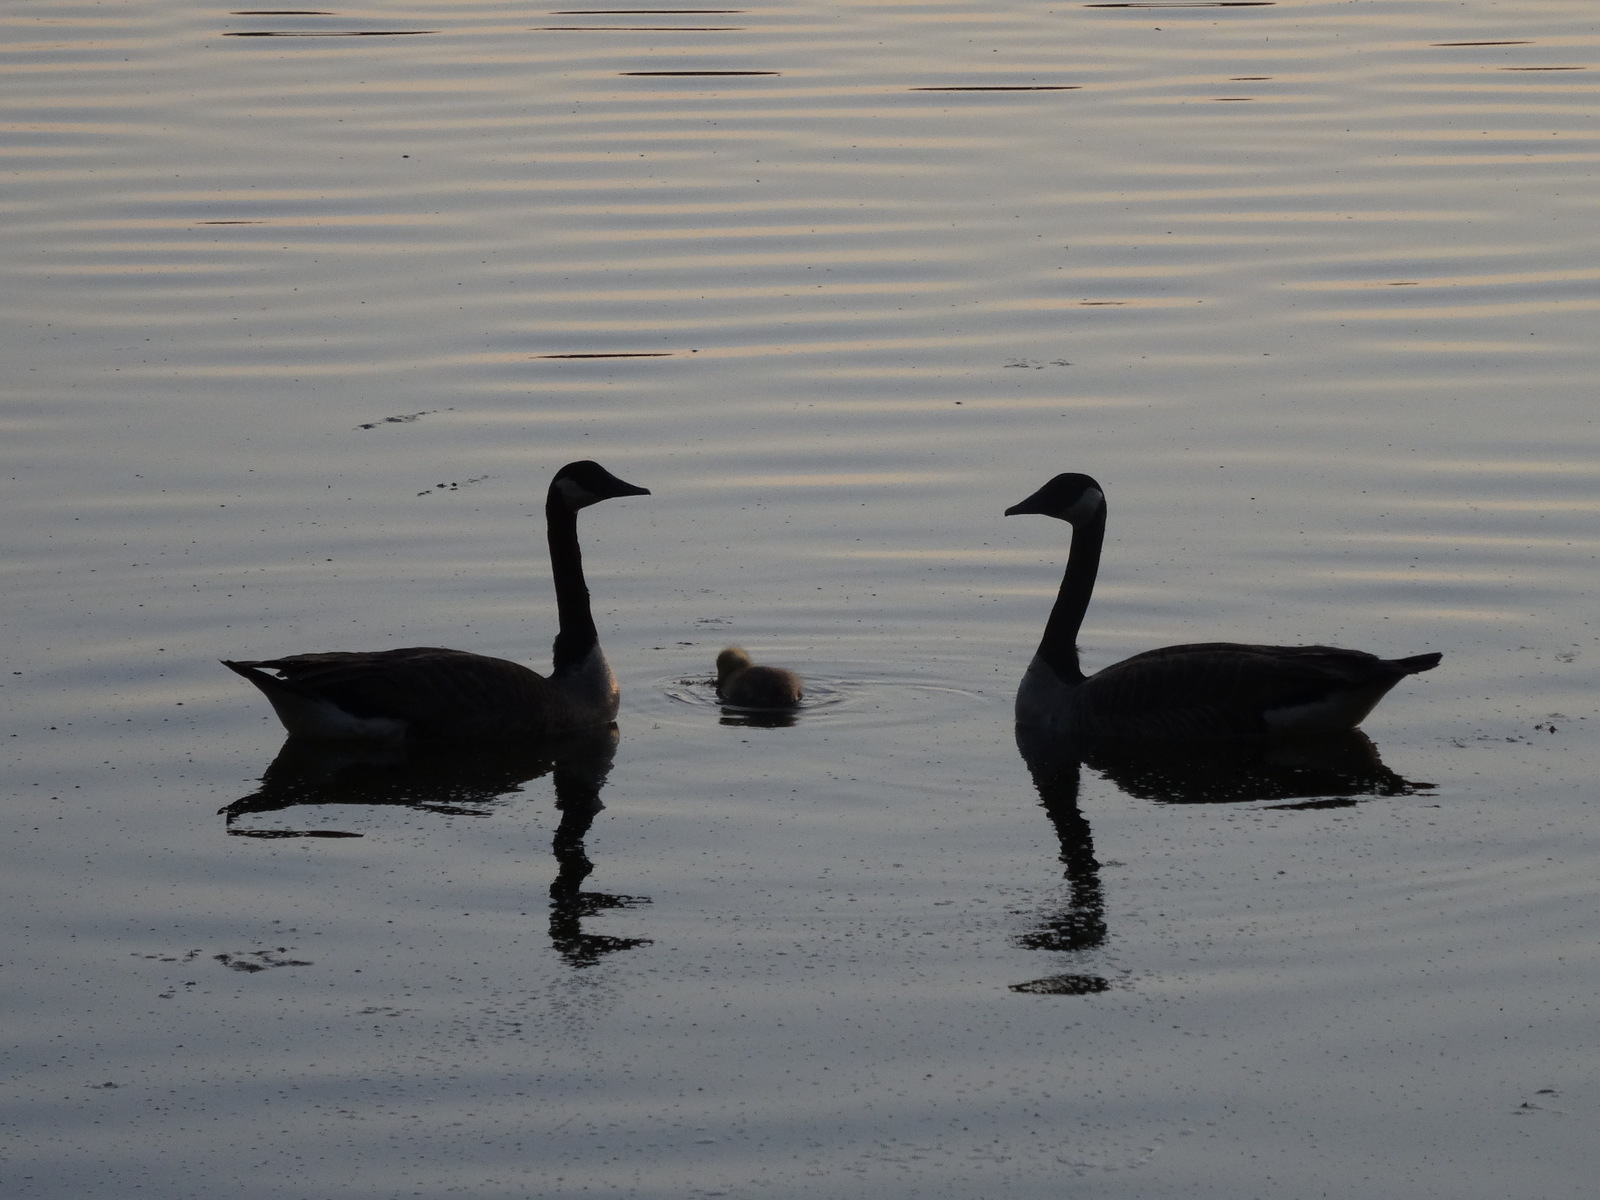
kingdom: Animalia
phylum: Chordata
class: Aves
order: Anseriformes
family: Anatidae
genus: Branta
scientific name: Branta canadensis
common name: Canada goose
